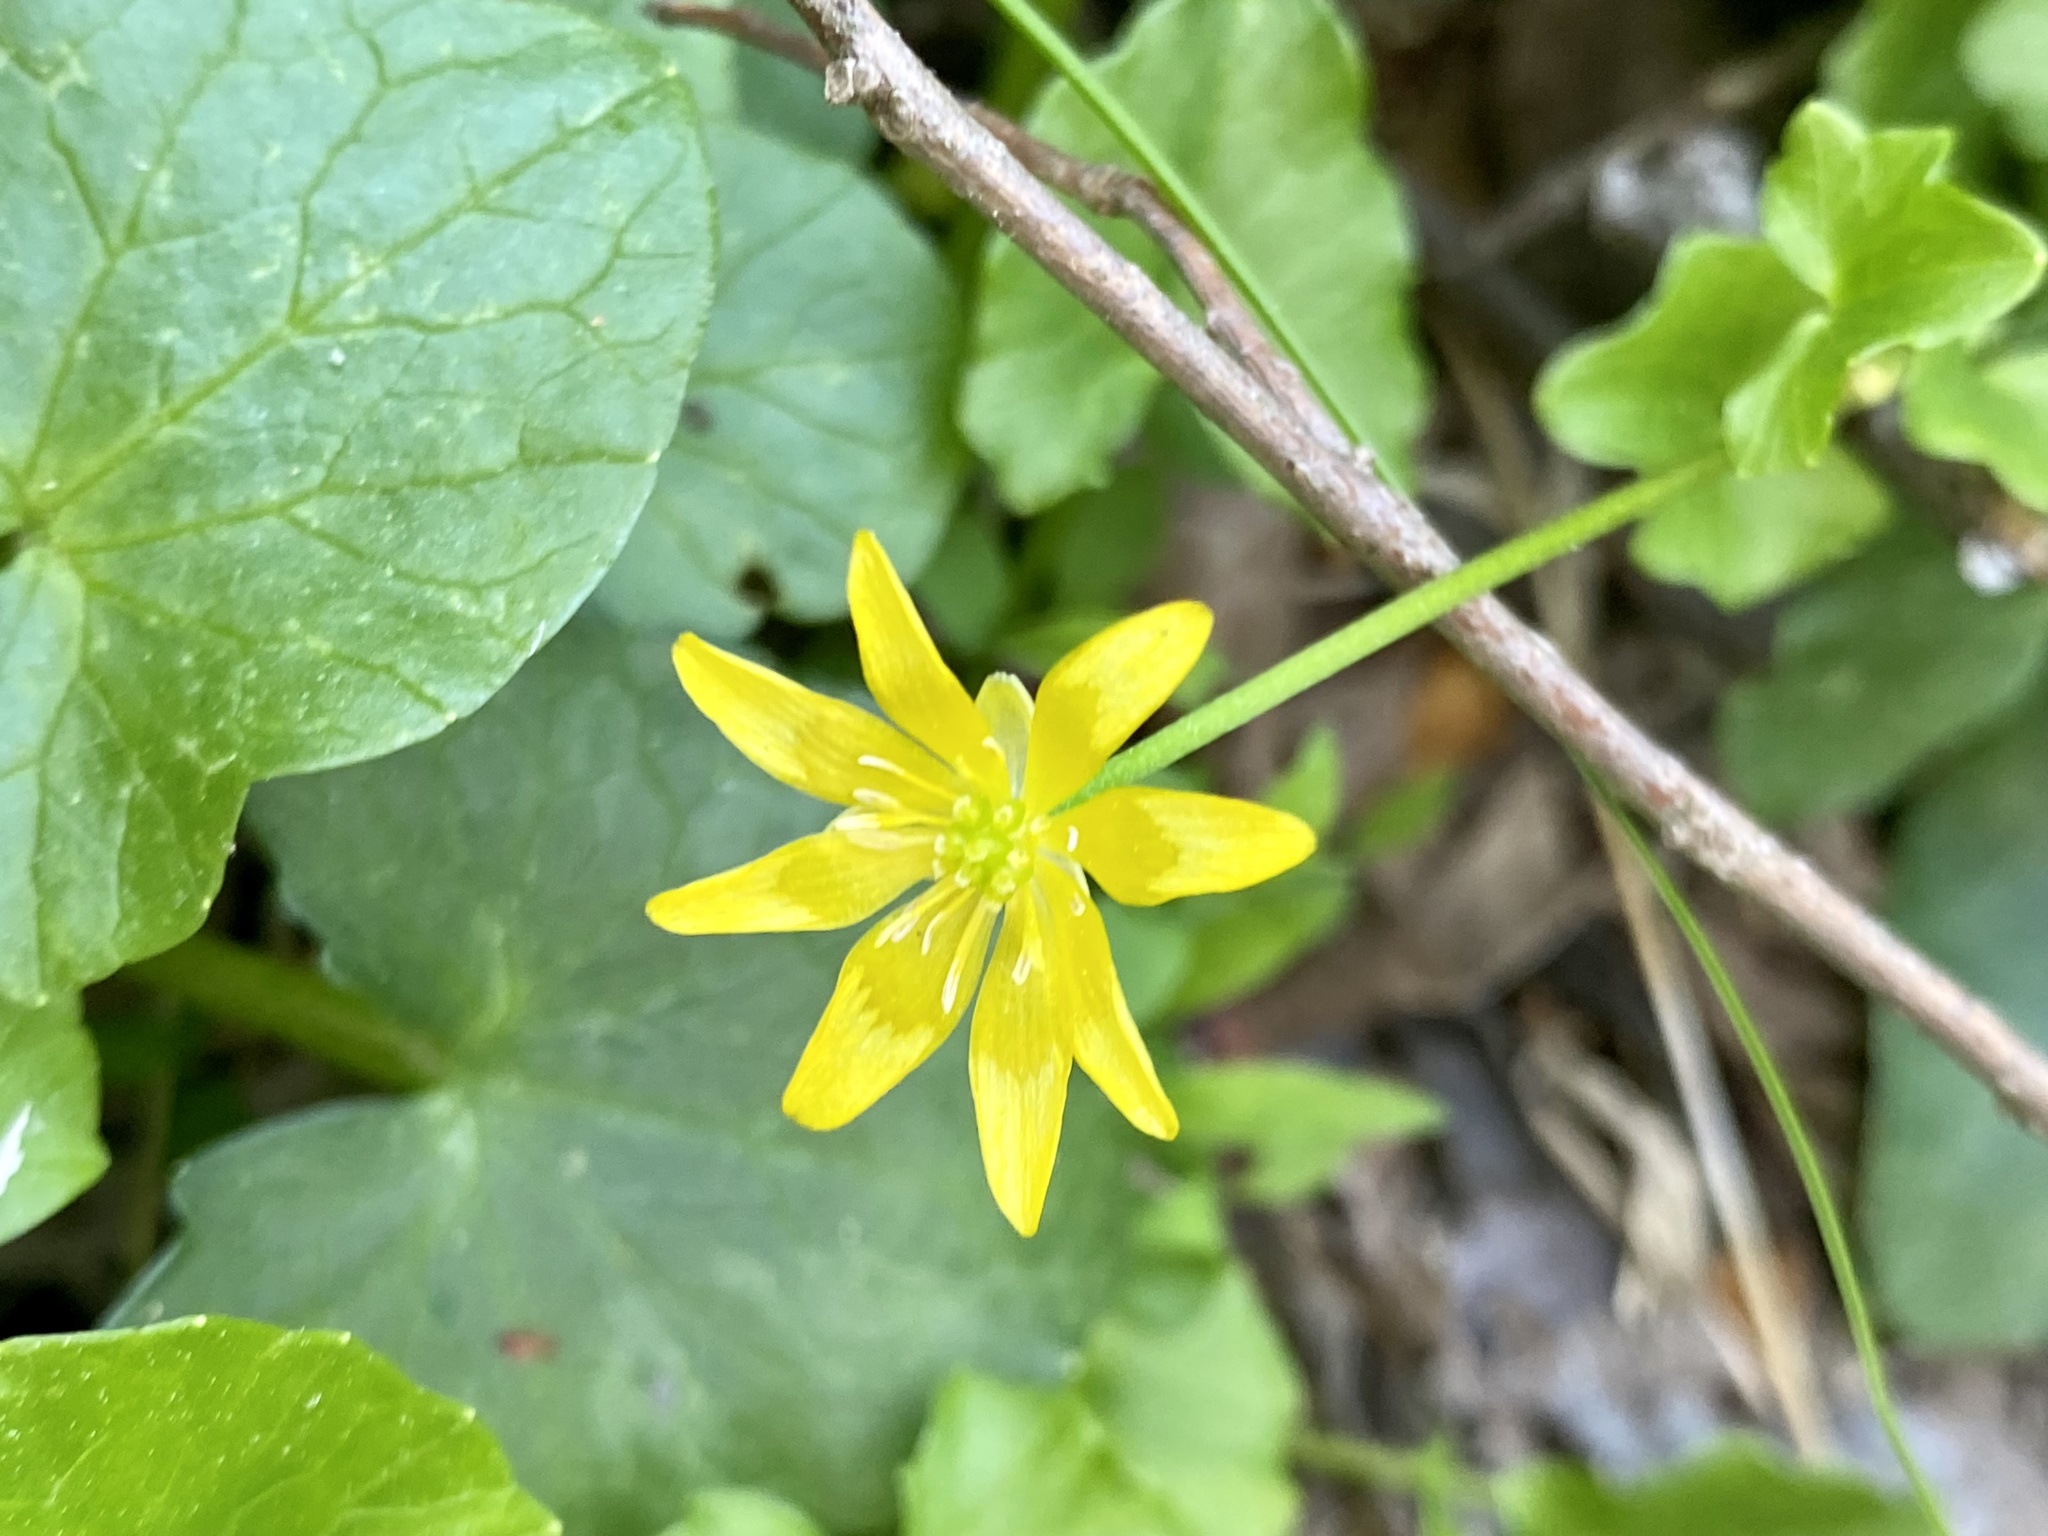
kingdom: Plantae
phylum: Tracheophyta
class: Magnoliopsida
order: Ranunculales
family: Ranunculaceae
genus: Ficaria
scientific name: Ficaria verna
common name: Lesser celandine
